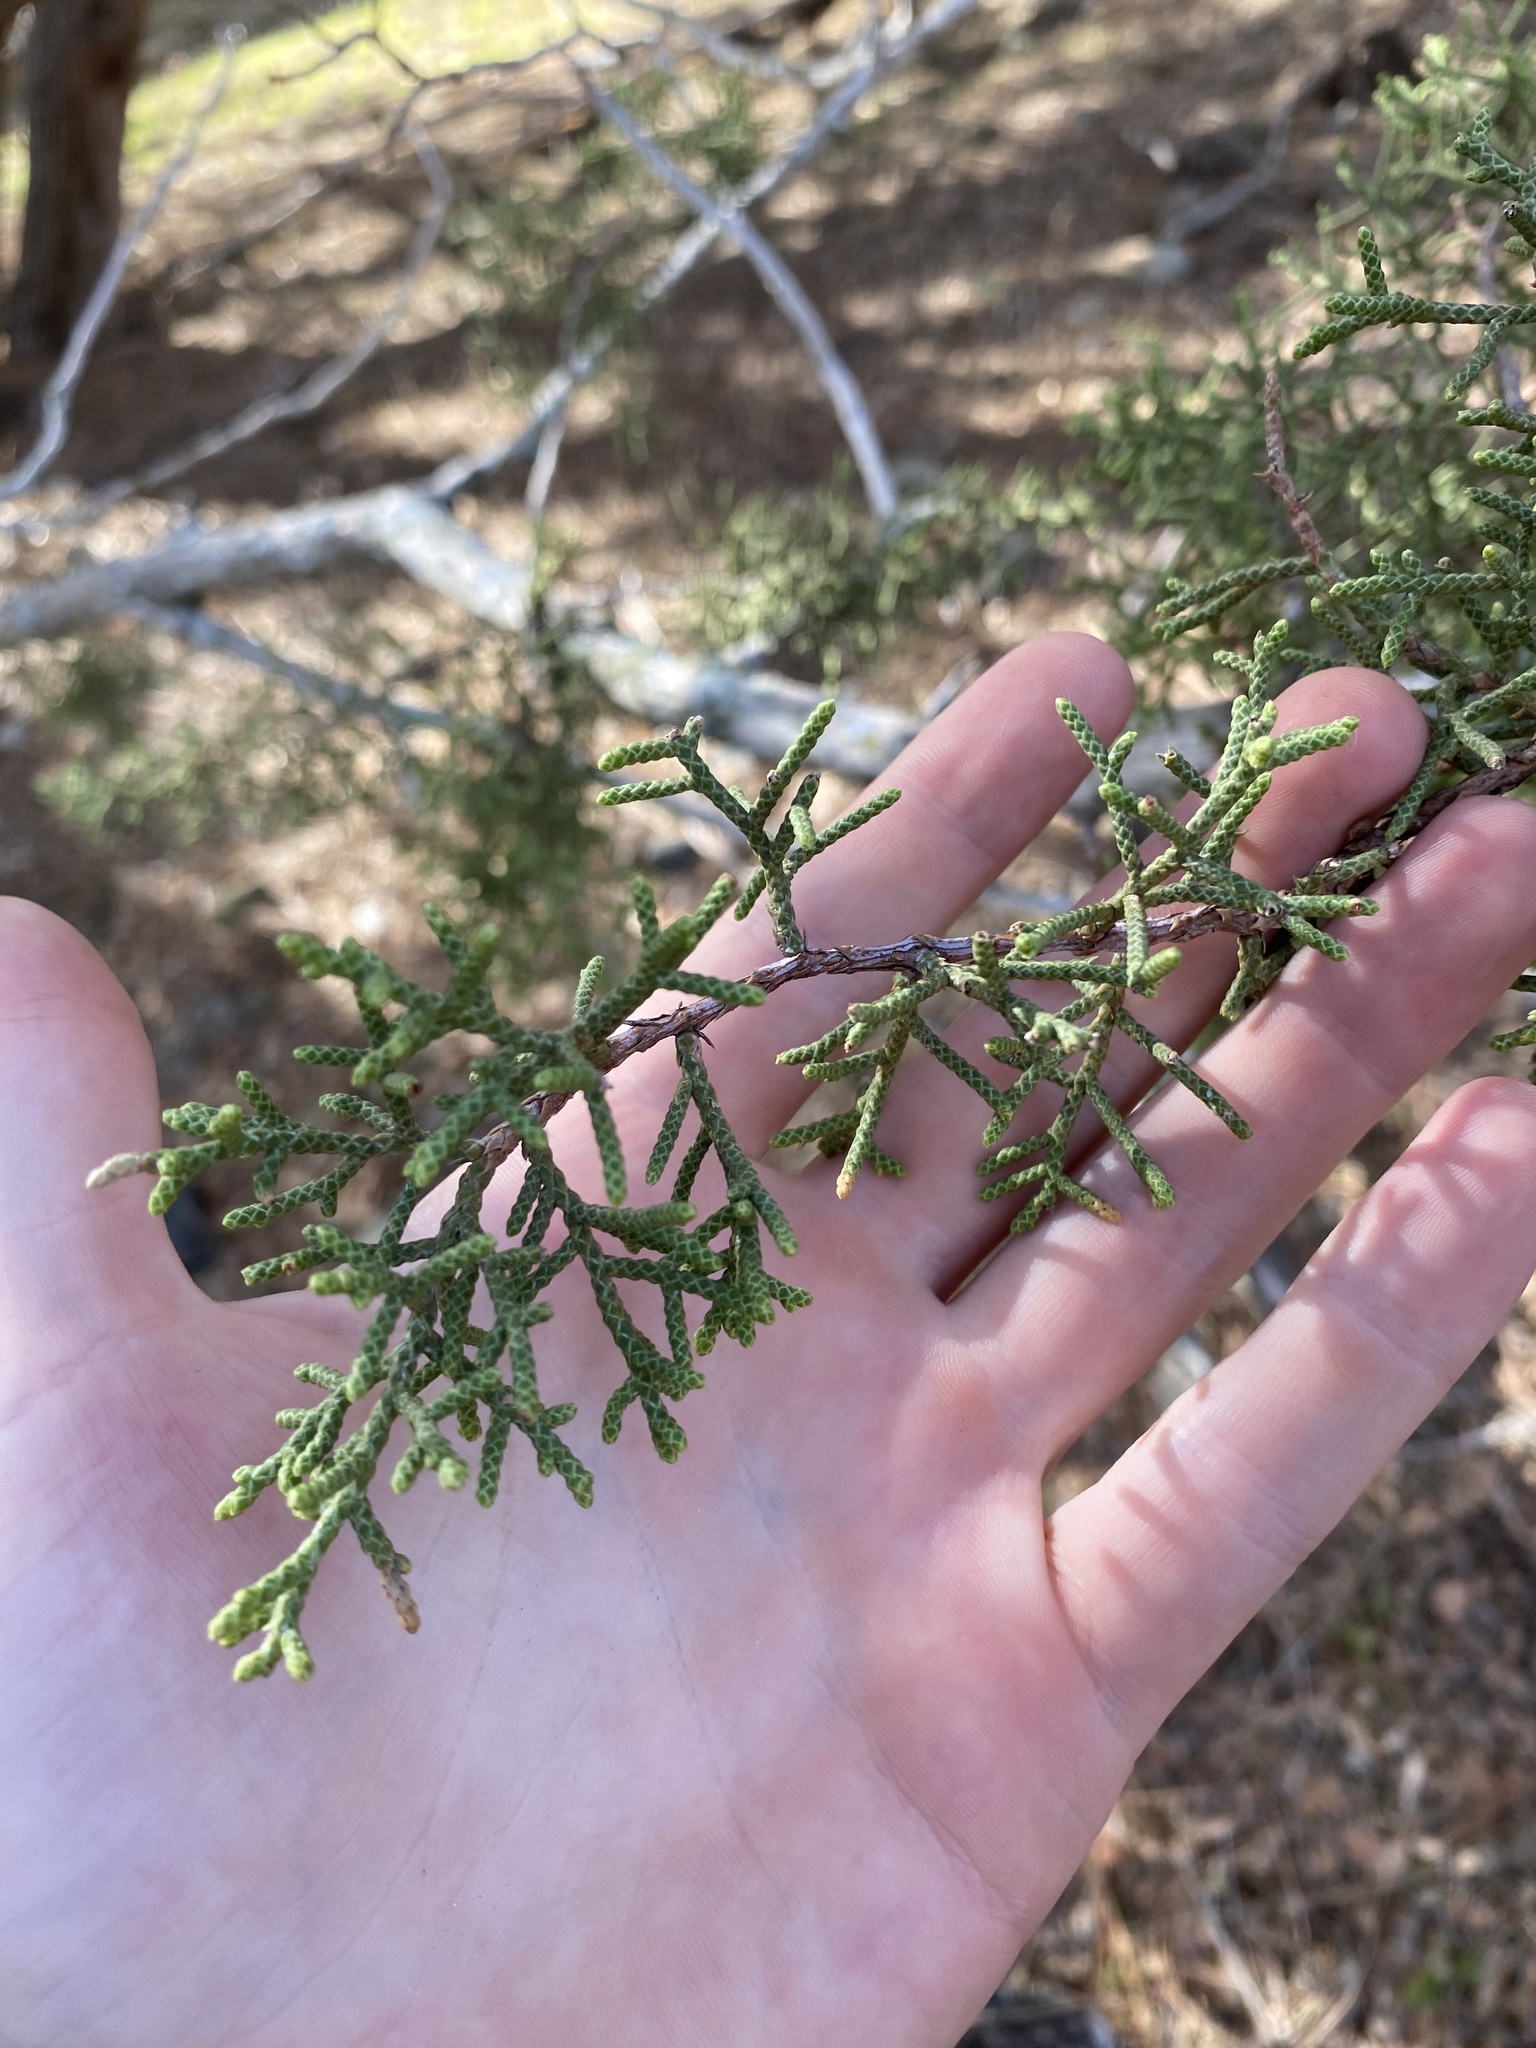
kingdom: Plantae
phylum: Tracheophyta
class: Pinopsida
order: Pinales
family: Cupressaceae
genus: Juniperus
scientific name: Juniperus californica
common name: California juniper
